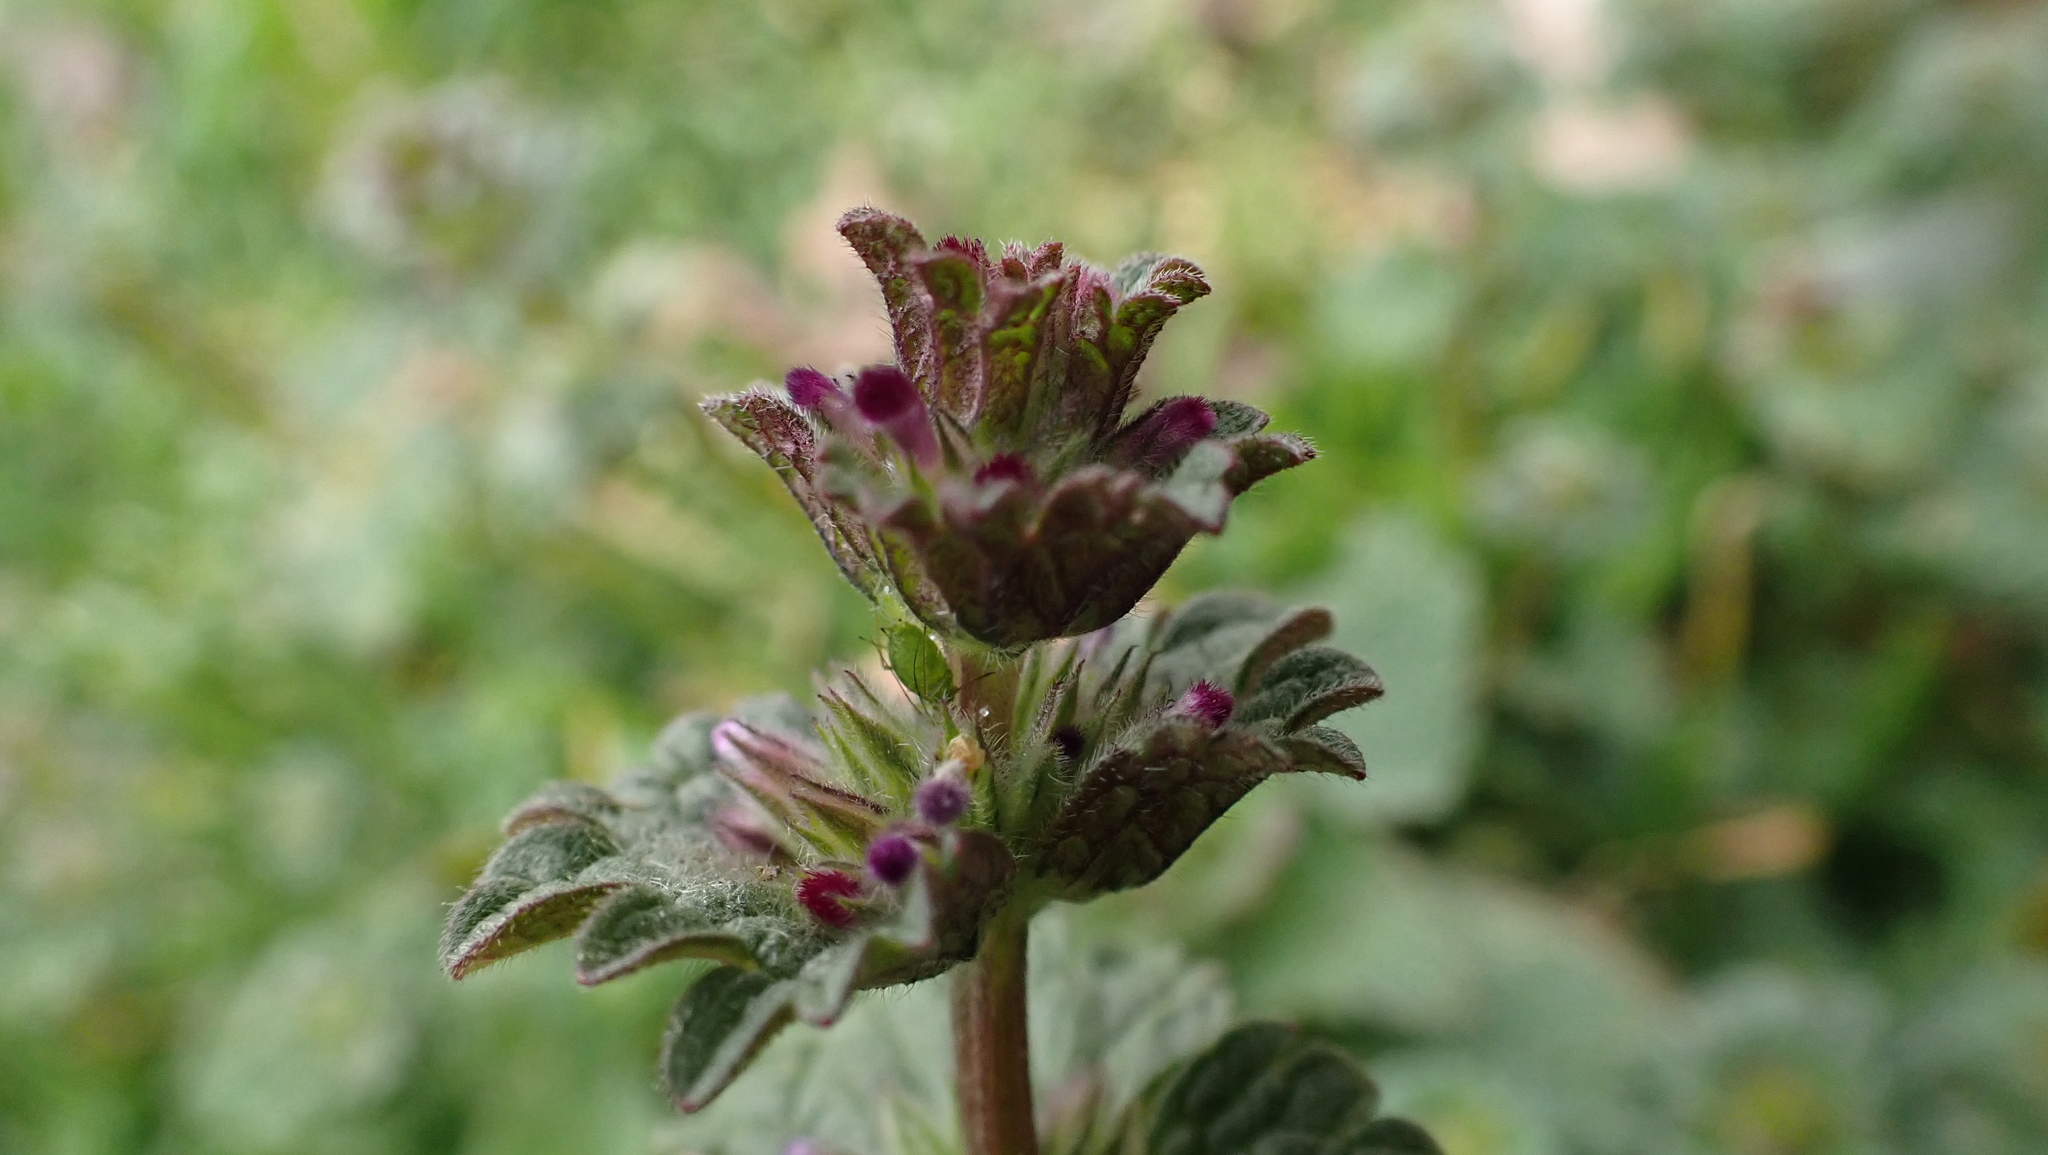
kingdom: Plantae
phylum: Tracheophyta
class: Magnoliopsida
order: Lamiales
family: Lamiaceae
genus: Lamium
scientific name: Lamium amplexicaule
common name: Henbit dead-nettle
